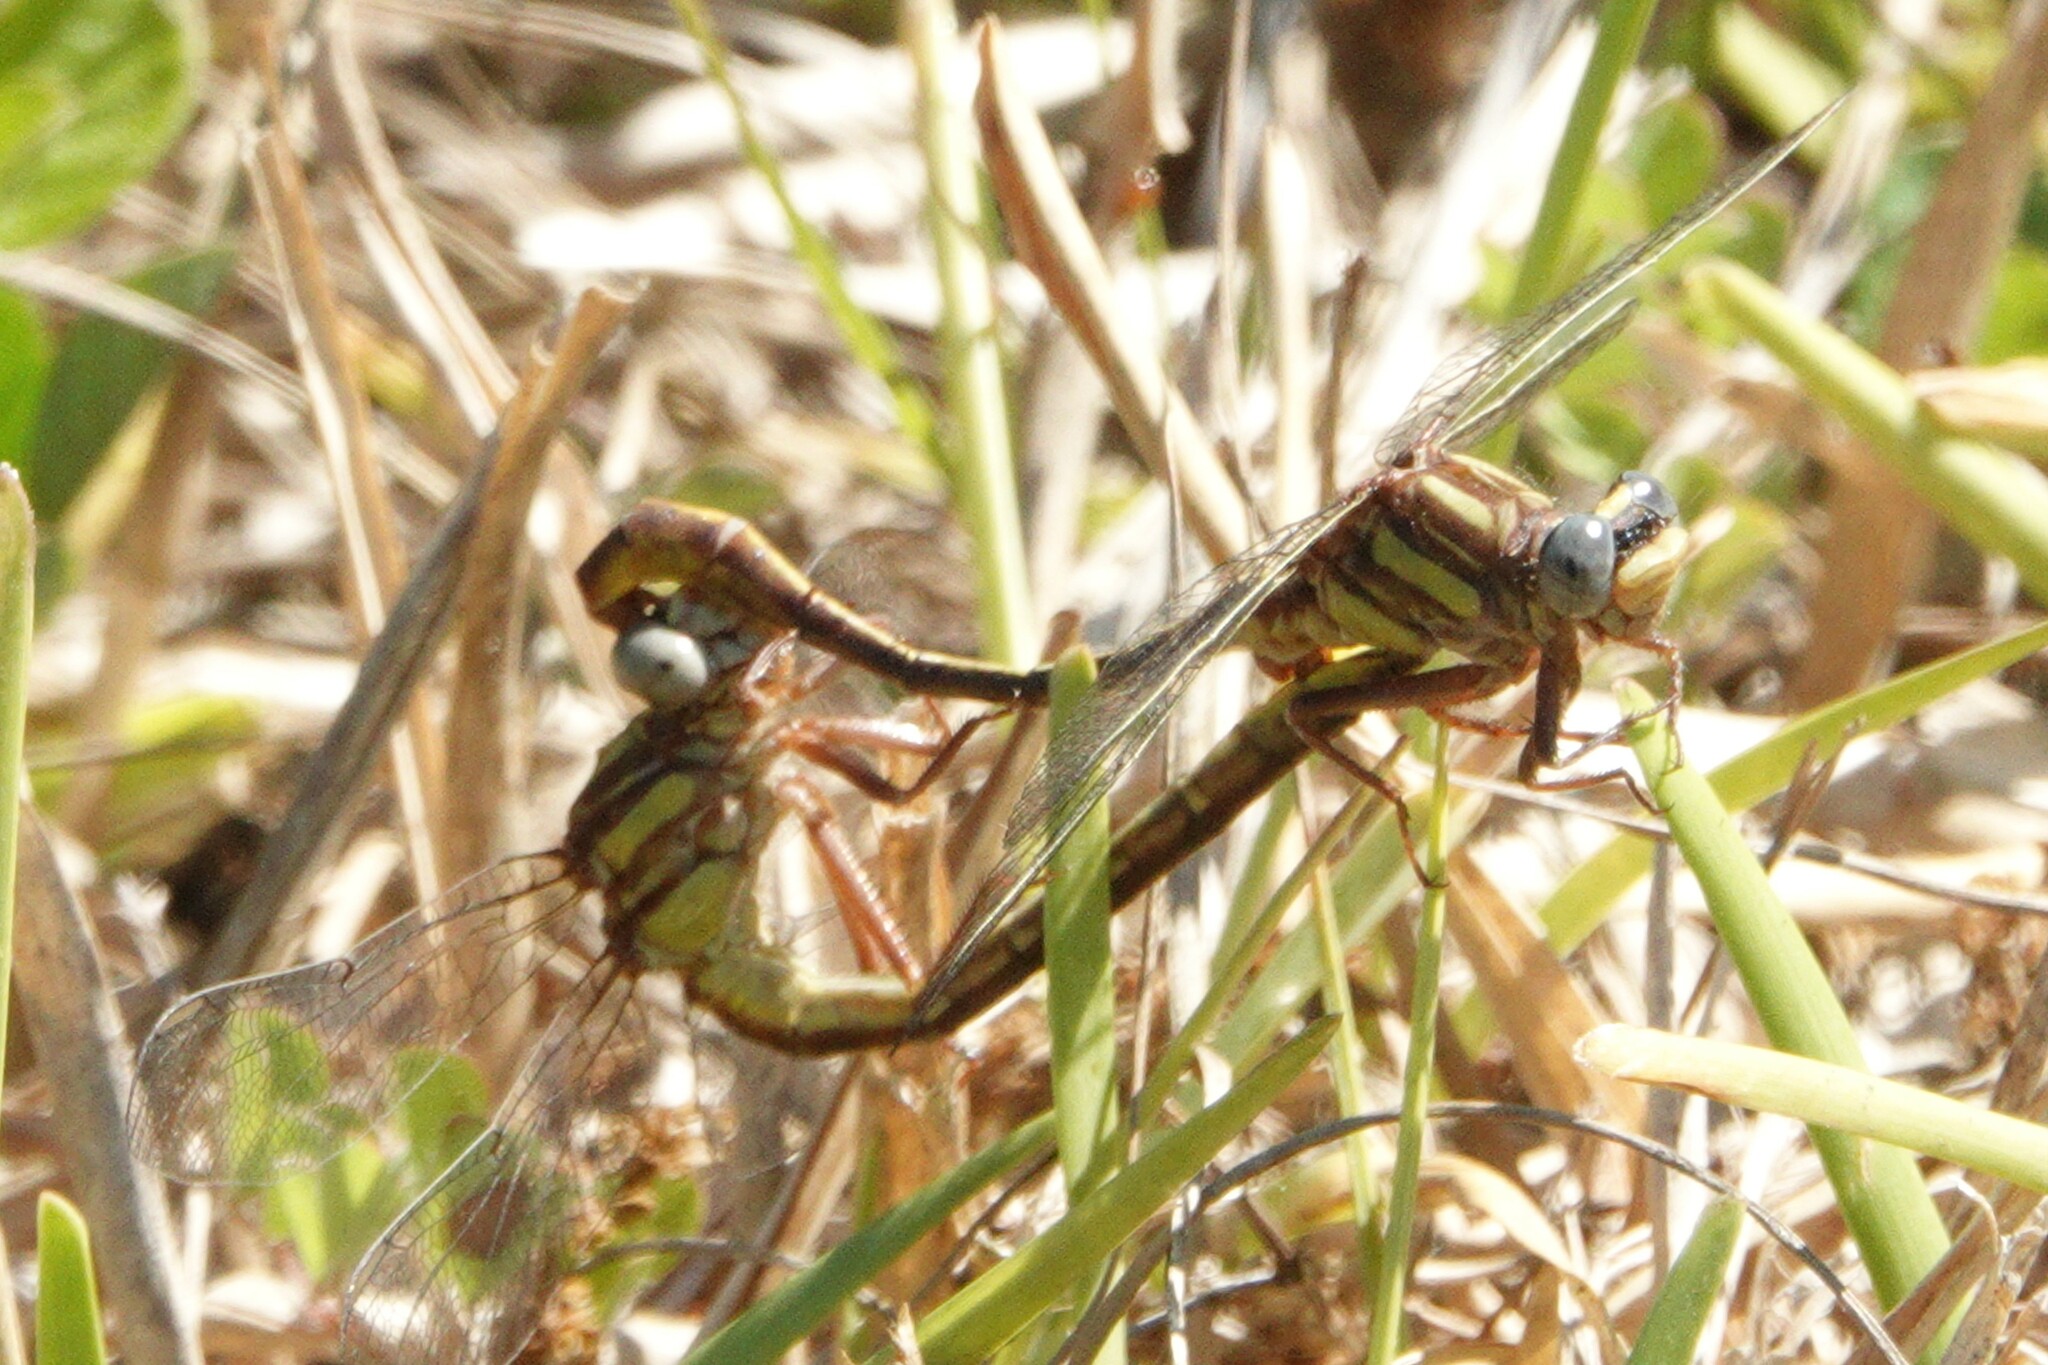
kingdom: Animalia
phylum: Arthropoda
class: Insecta
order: Odonata
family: Gomphidae
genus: Phanogomphus
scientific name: Phanogomphus minutus
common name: Cypress clubtail
